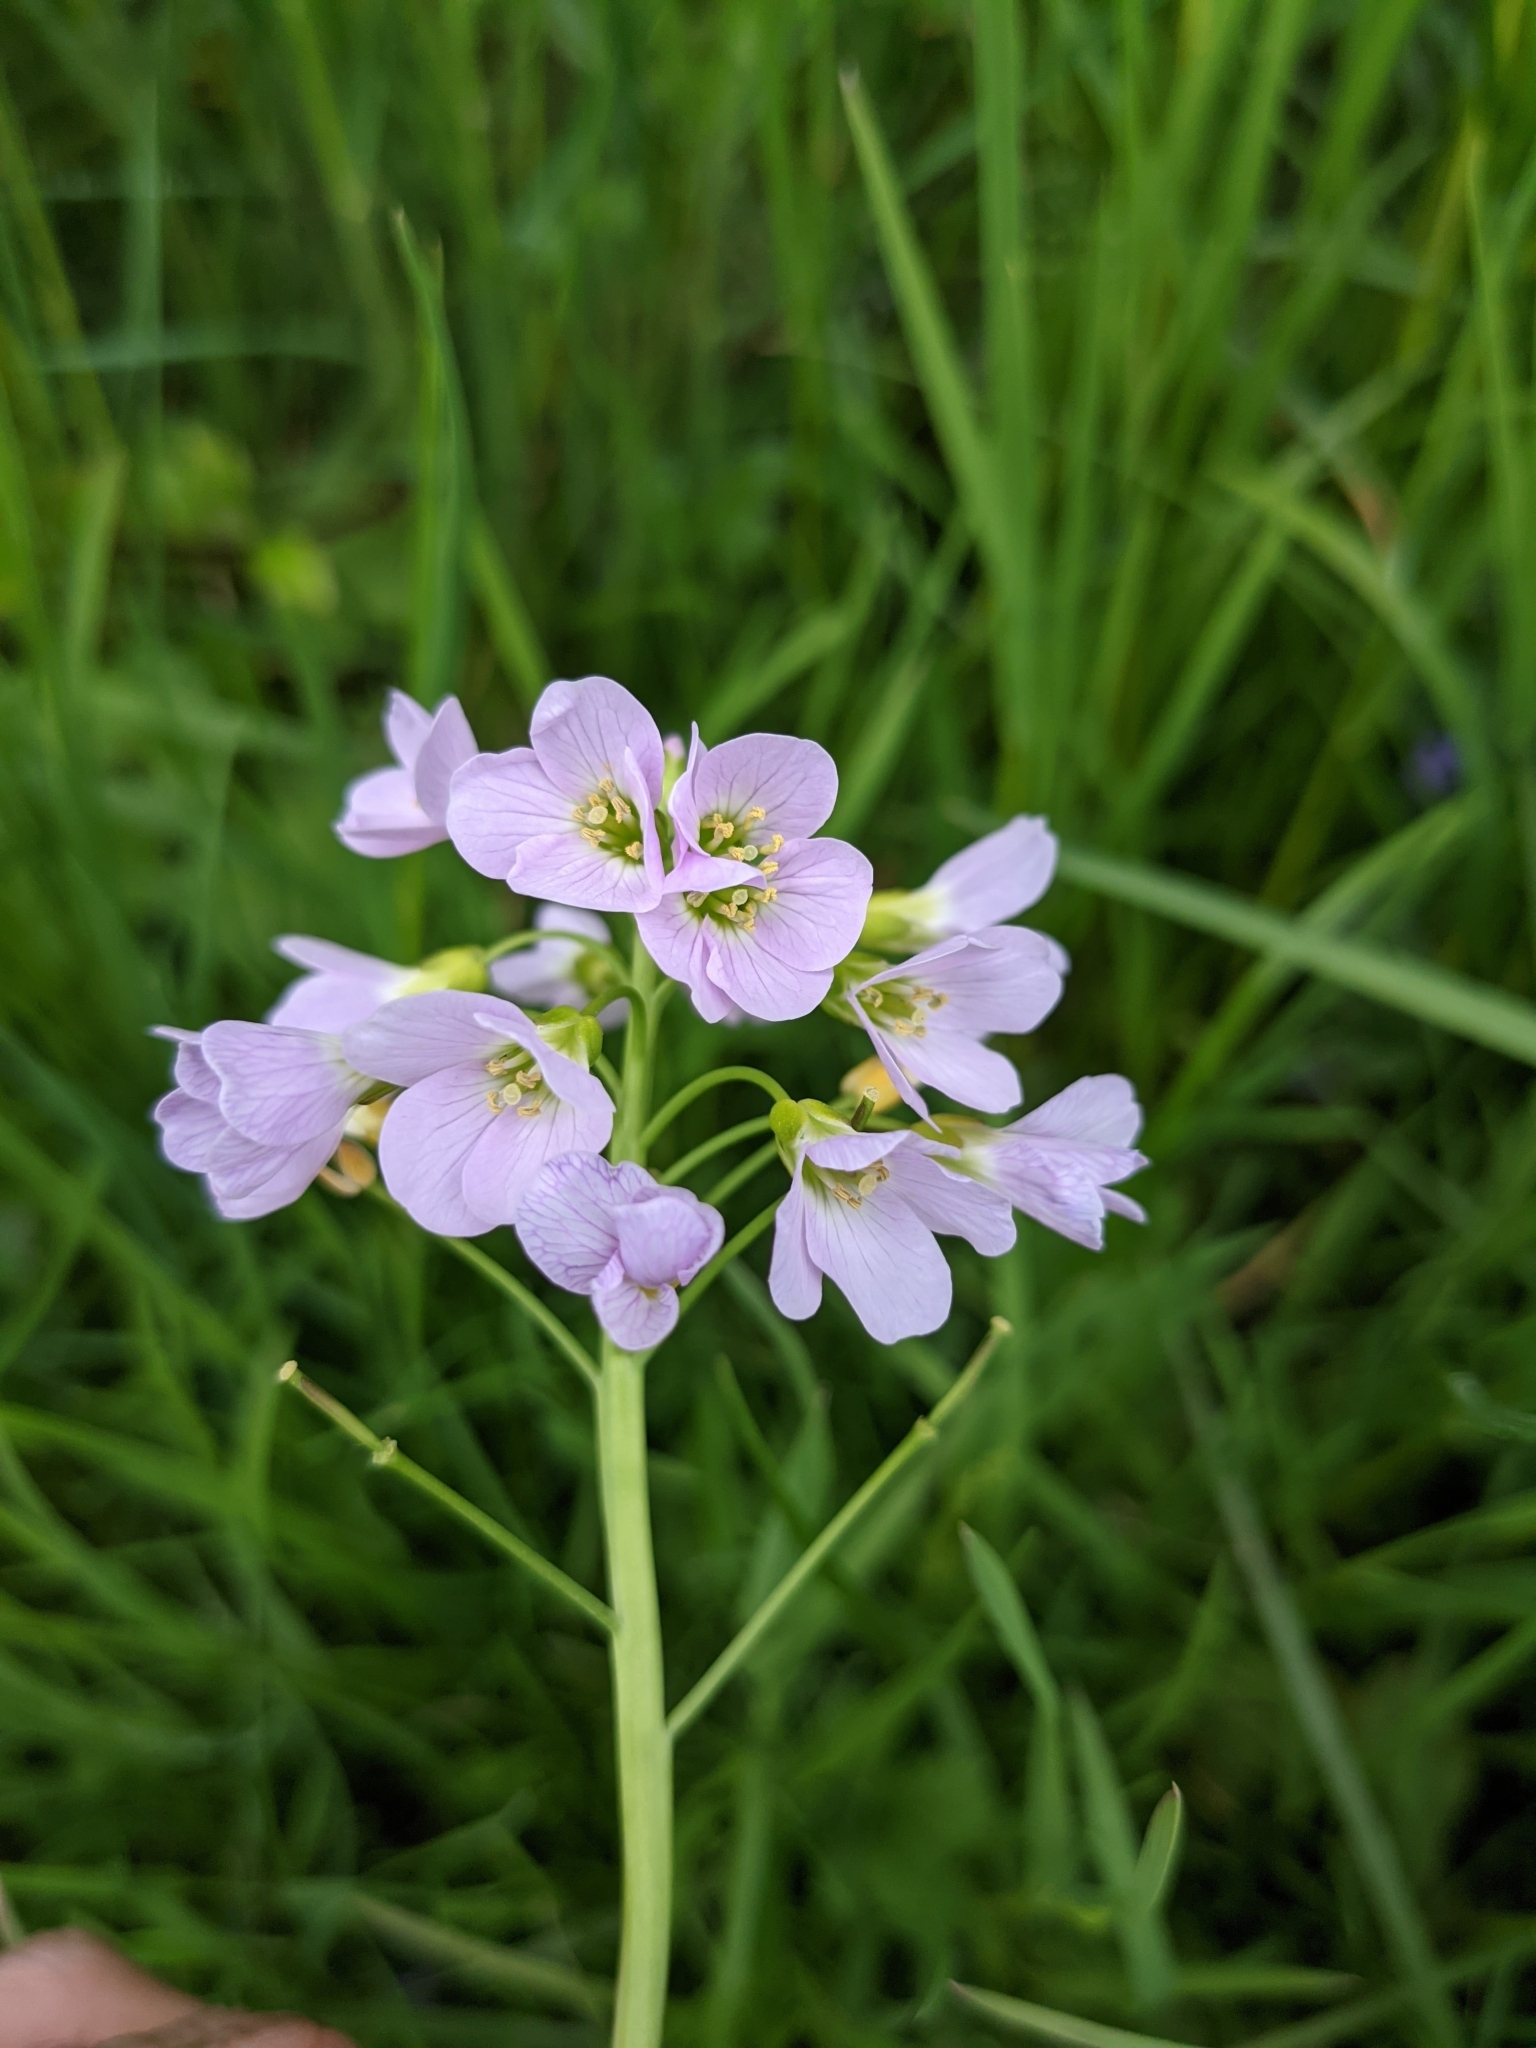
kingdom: Plantae
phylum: Tracheophyta
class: Magnoliopsida
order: Brassicales
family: Brassicaceae
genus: Cardamine
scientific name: Cardamine pratensis
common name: Cuckoo flower
